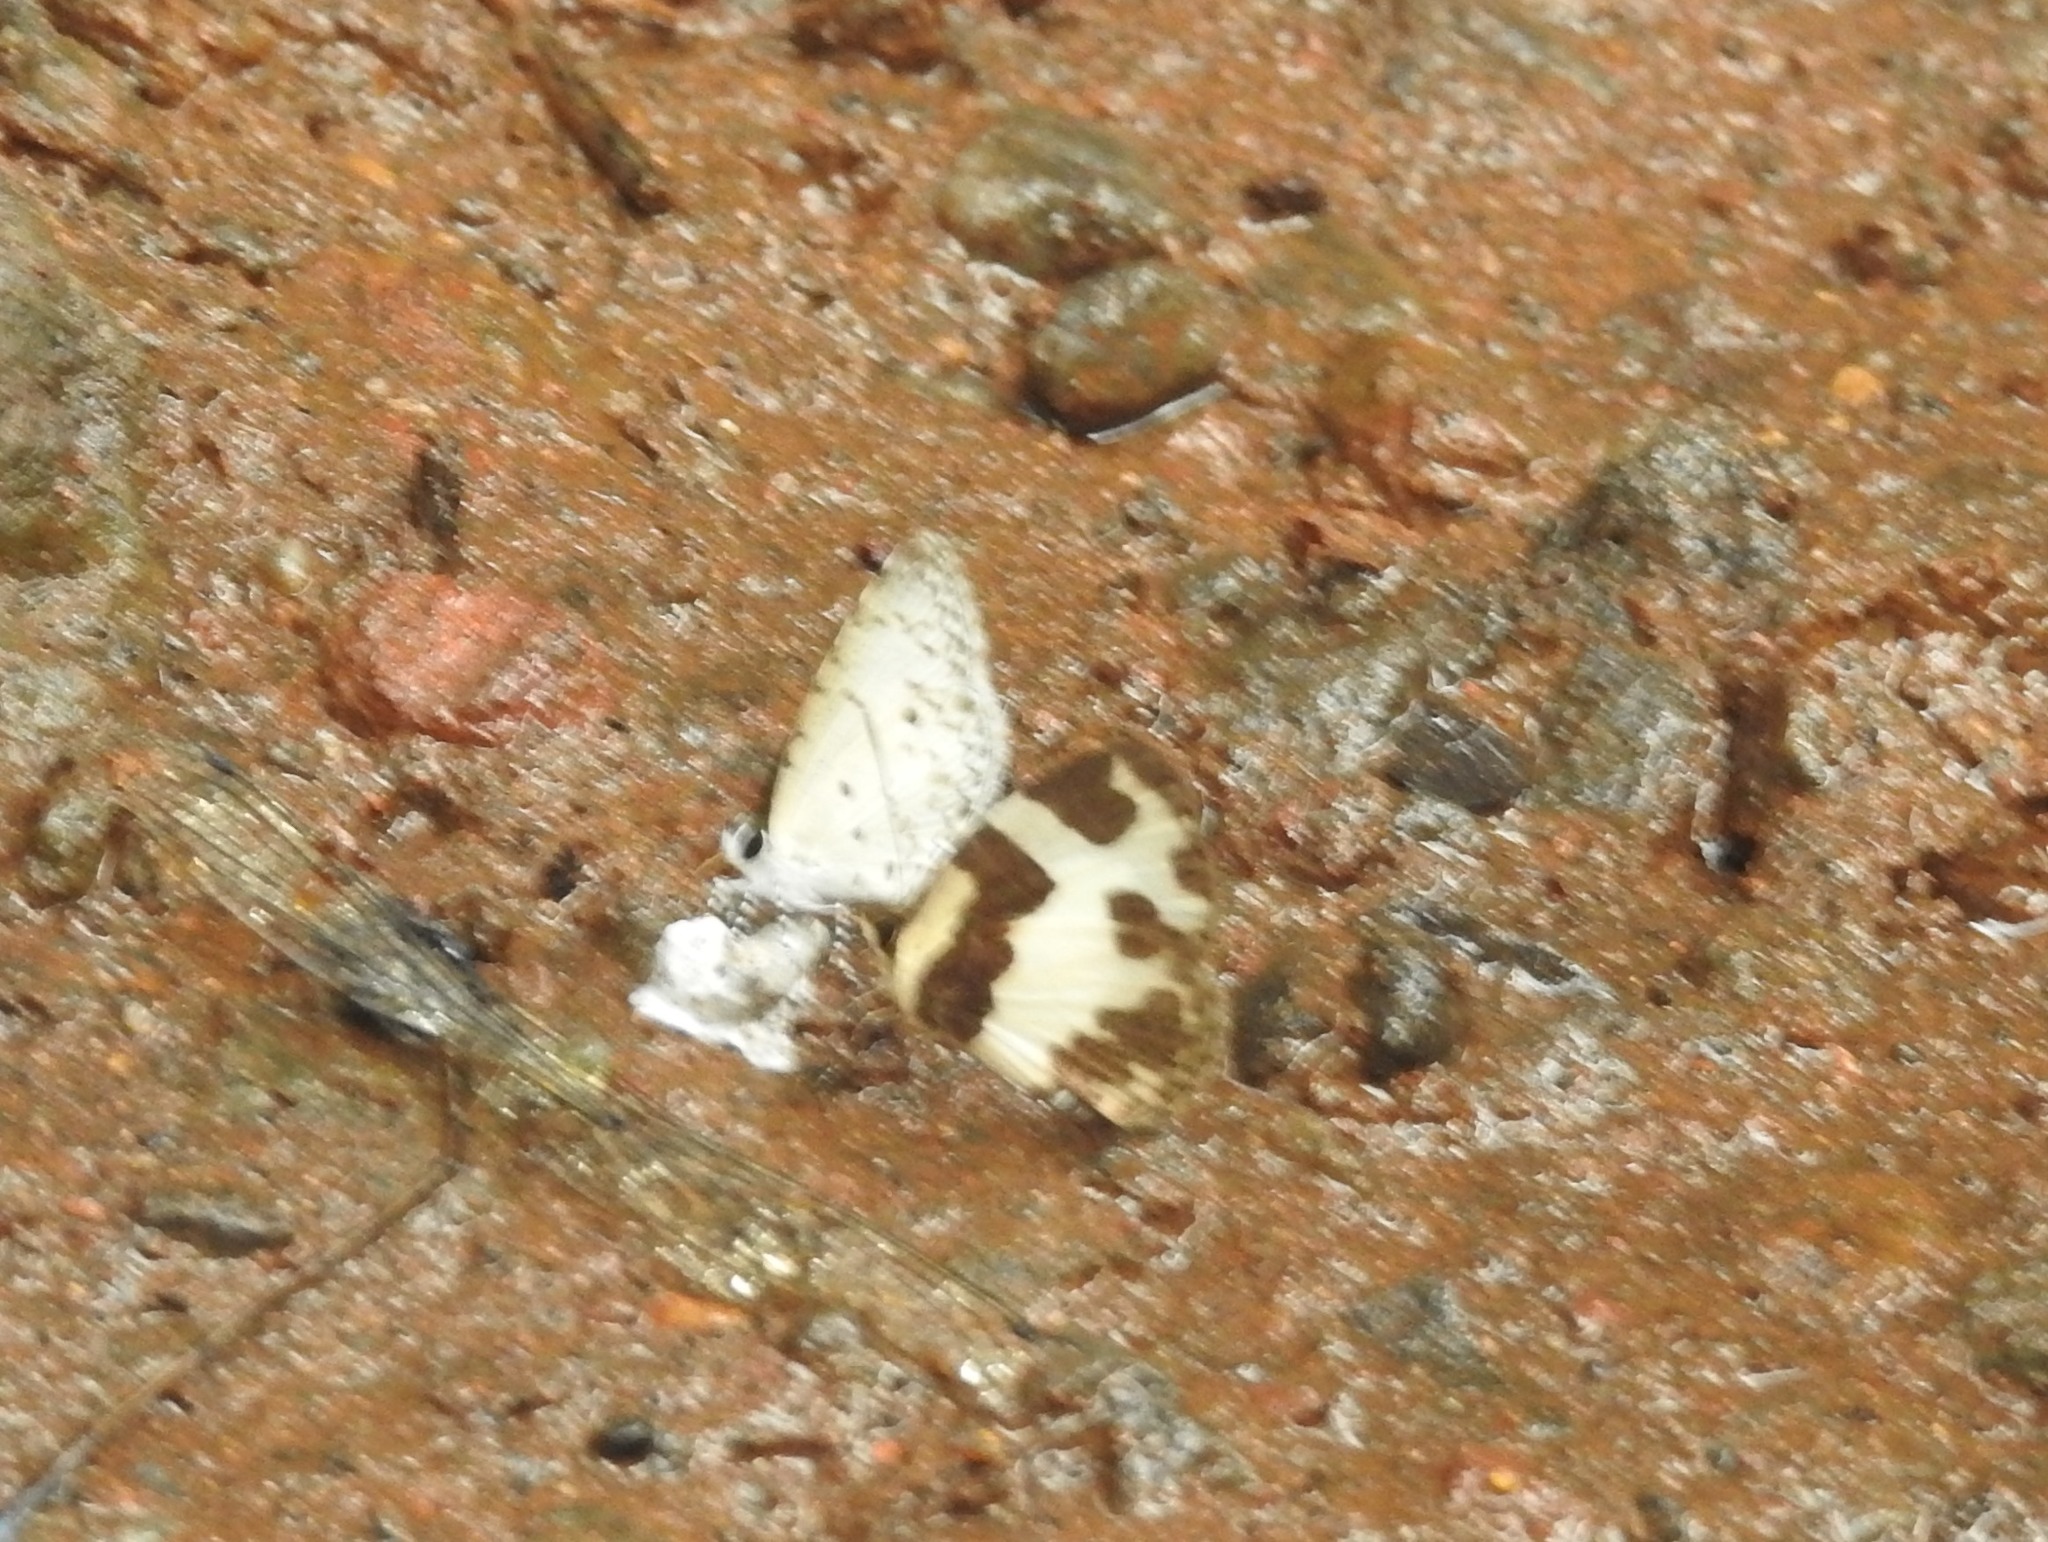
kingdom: Animalia
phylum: Arthropoda
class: Insecta
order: Lepidoptera
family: Lycaenidae
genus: Caleta
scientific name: Caleta elna
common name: Elbowed pierrot
